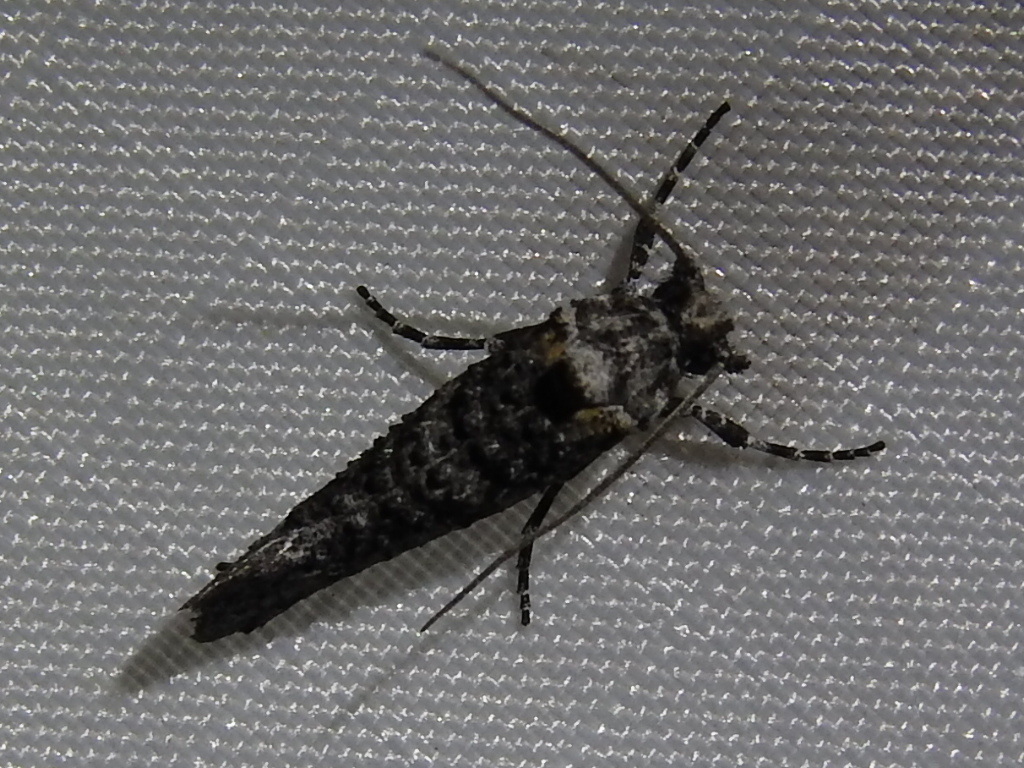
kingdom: Animalia
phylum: Arthropoda
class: Insecta
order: Lepidoptera
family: Tineidae
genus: Dyotopasta
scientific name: Dyotopasta yumaella
